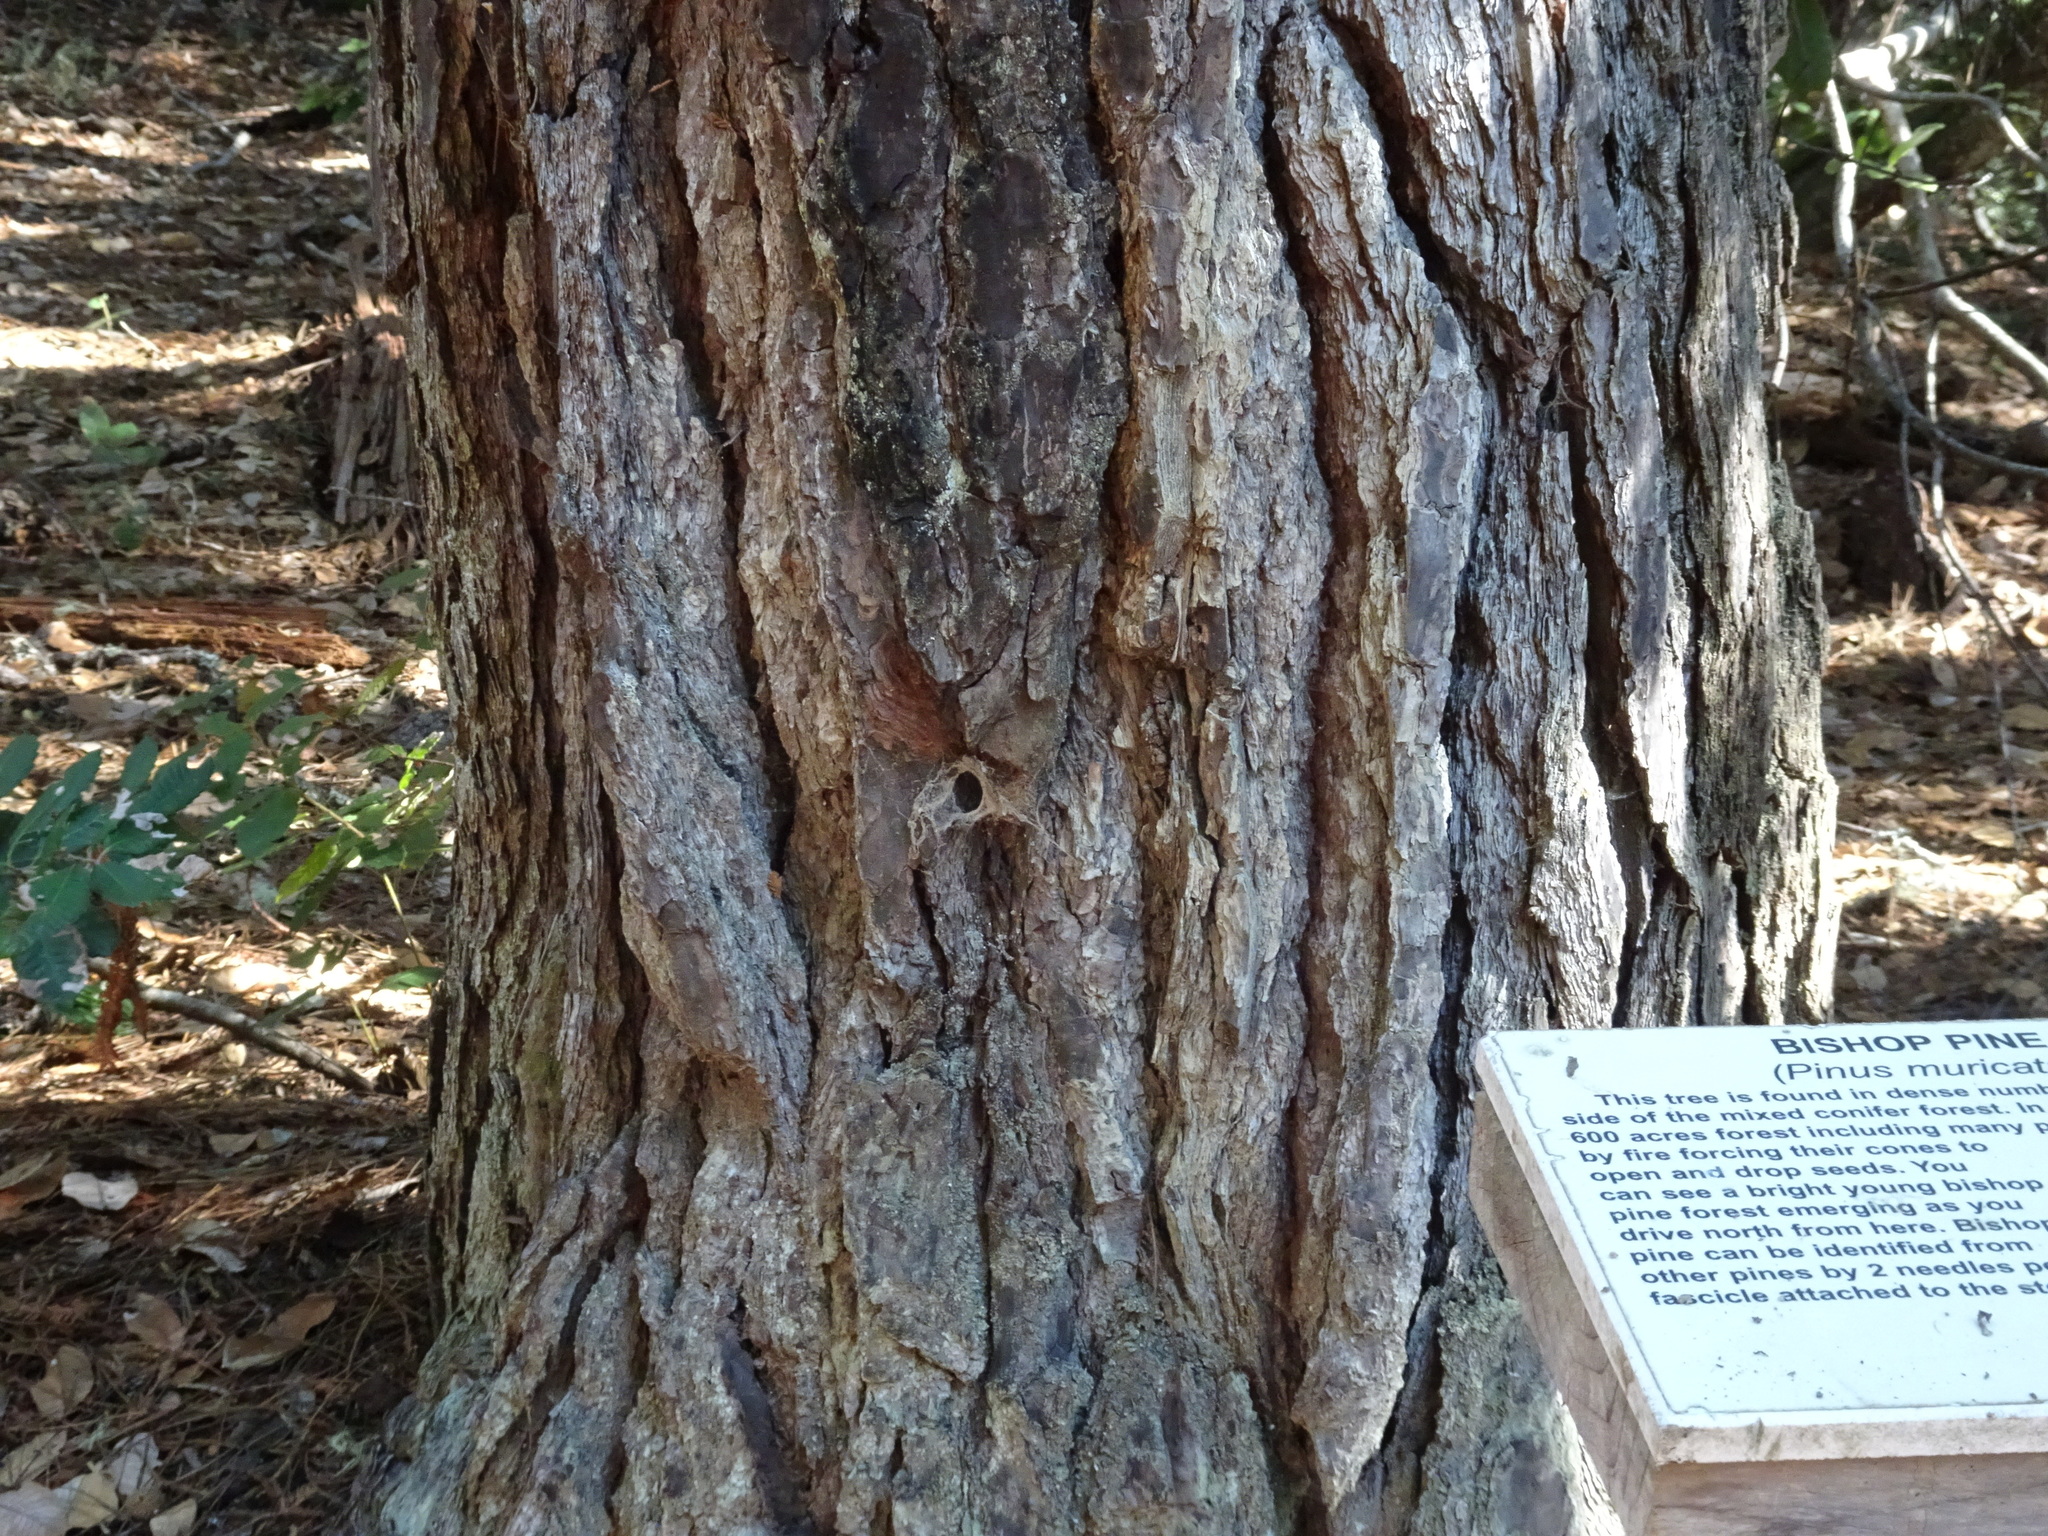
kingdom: Plantae
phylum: Tracheophyta
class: Pinopsida
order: Pinales
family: Pinaceae
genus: Pinus
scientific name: Pinus muricata
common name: Bishop pine
